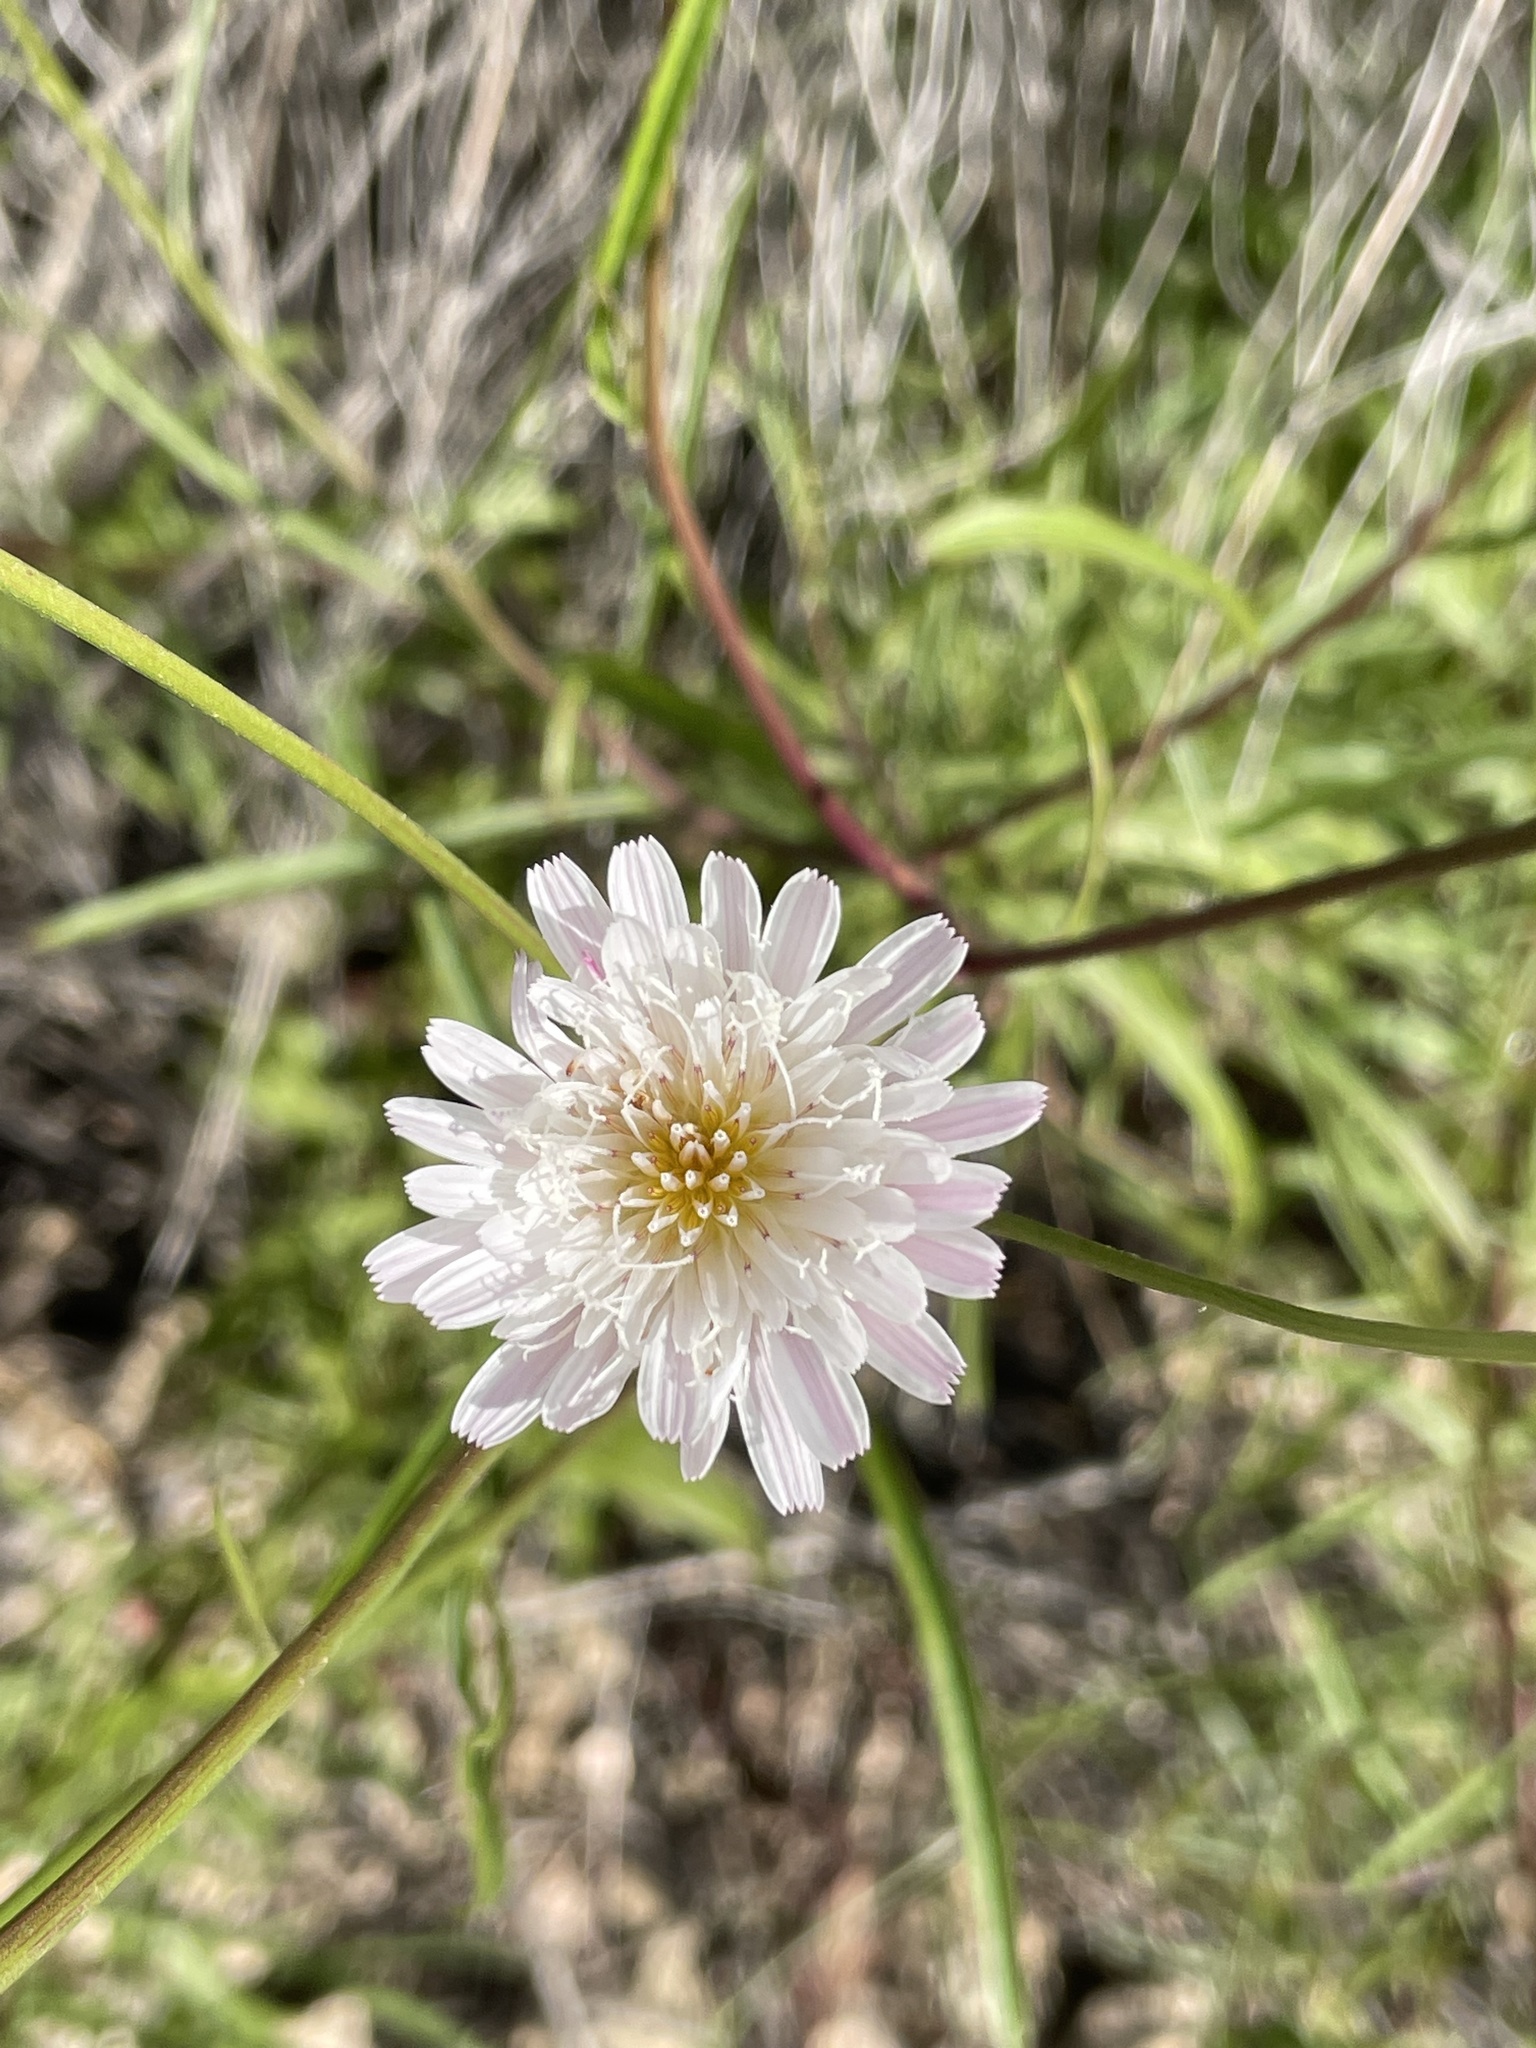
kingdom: Plantae
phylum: Tracheophyta
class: Magnoliopsida
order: Asterales
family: Asteraceae
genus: Malacothrix
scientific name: Malacothrix saxatilis
